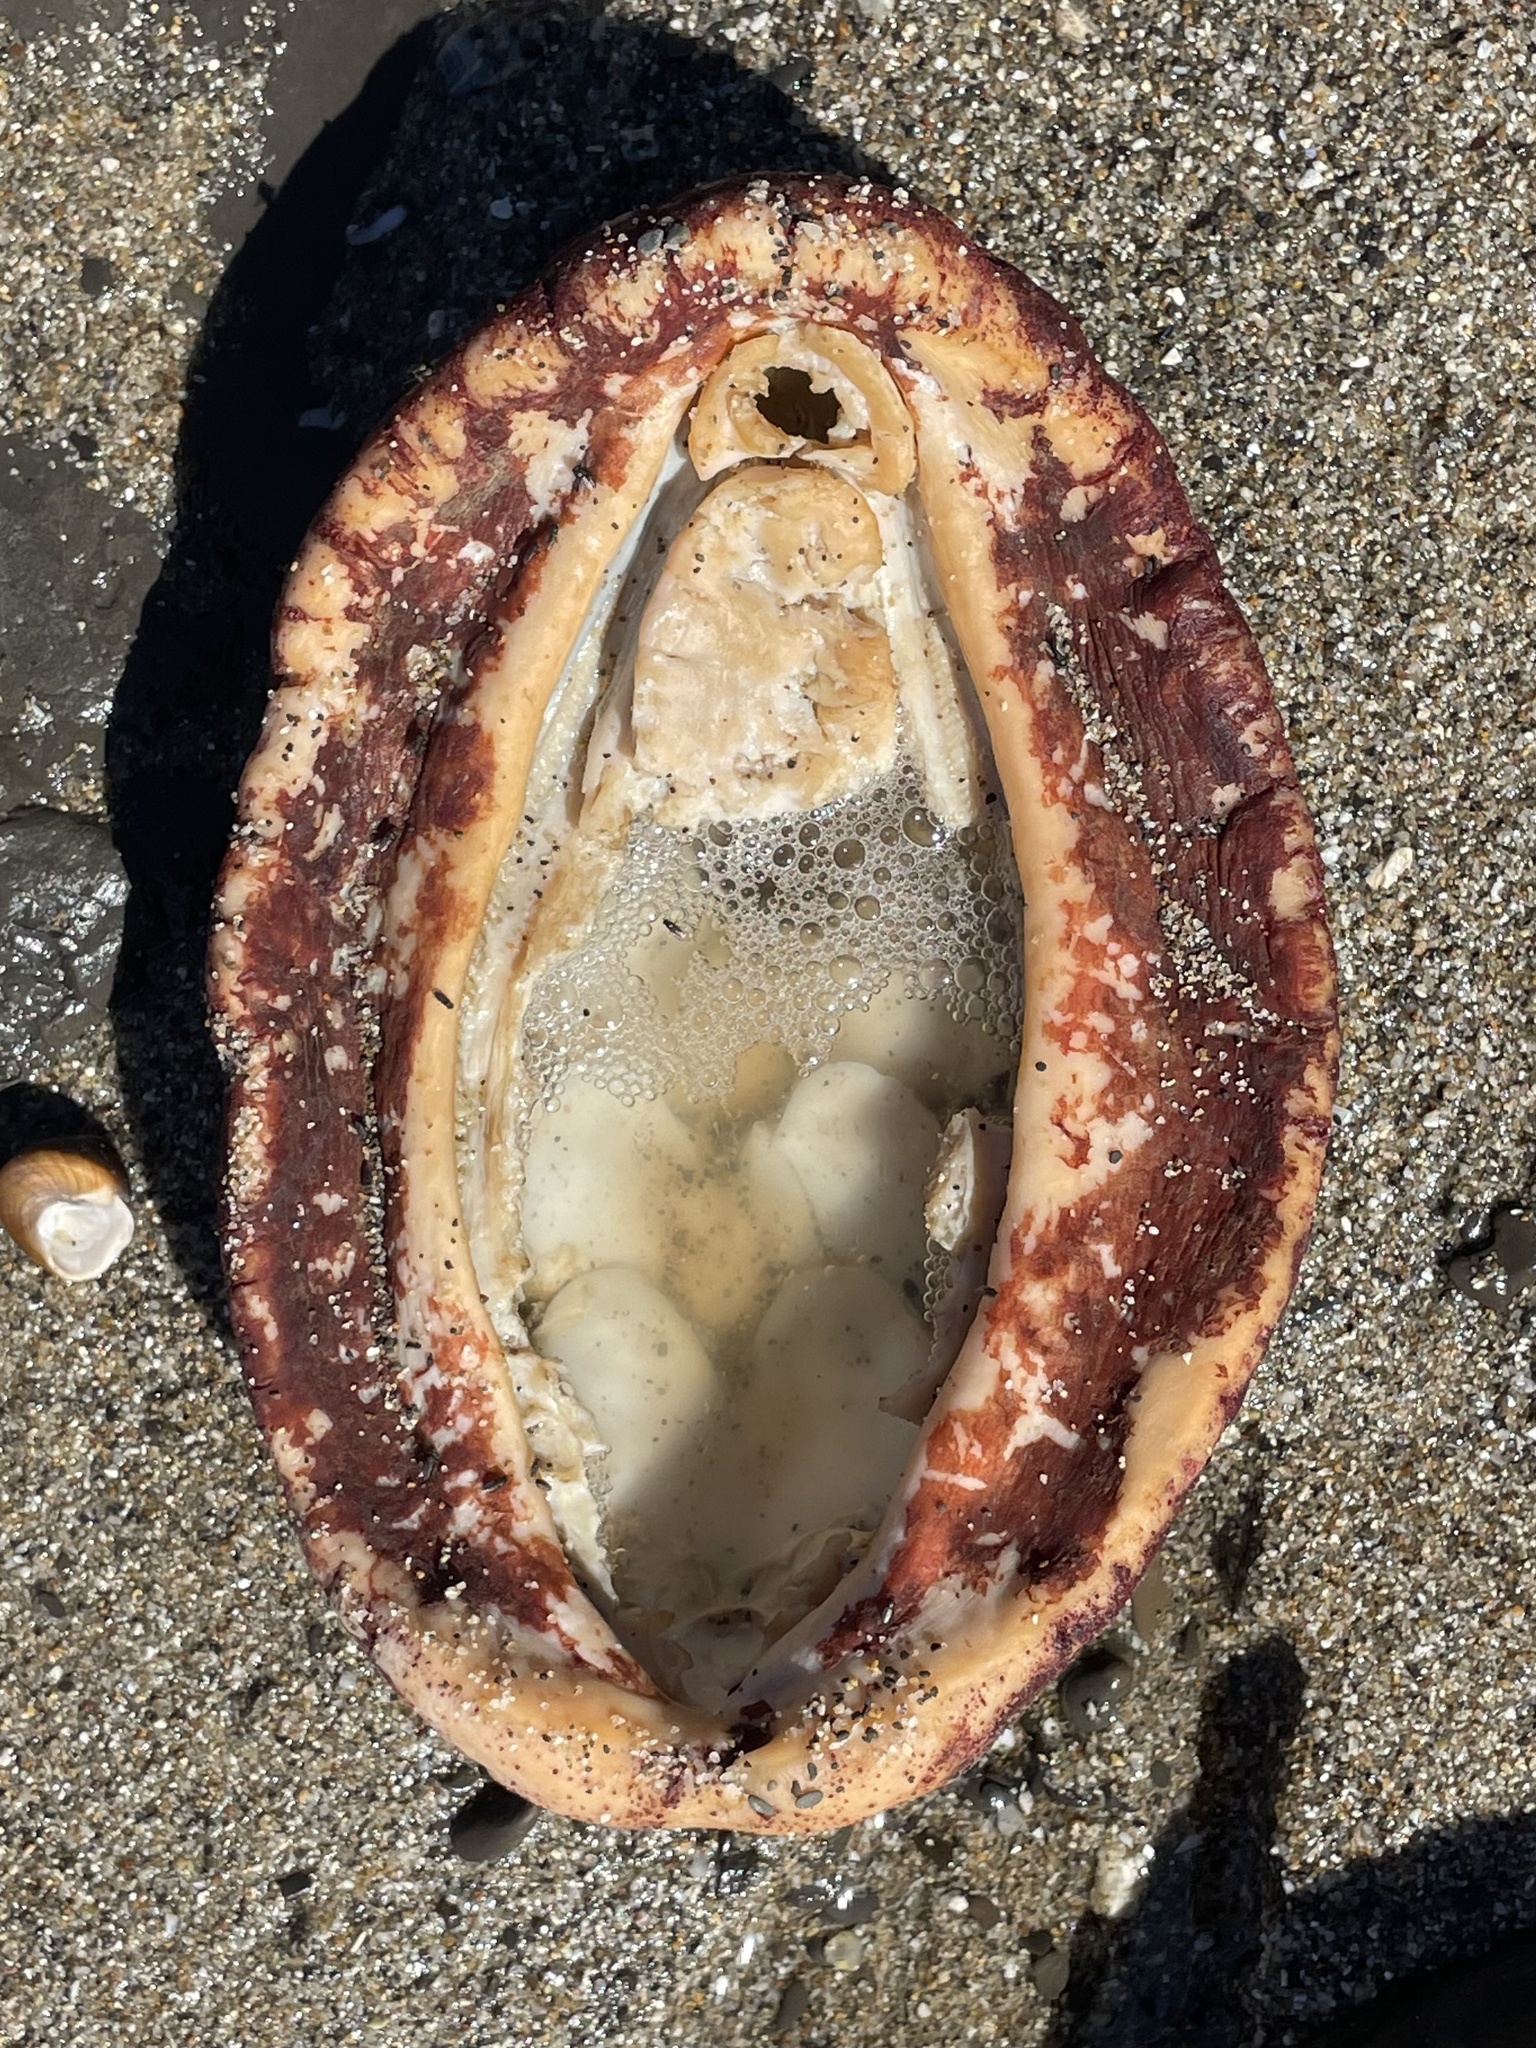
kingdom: Animalia
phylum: Mollusca
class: Polyplacophora
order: Chitonida
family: Acanthochitonidae
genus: Cryptochiton
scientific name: Cryptochiton stelleri
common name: Giant pacific chiton
